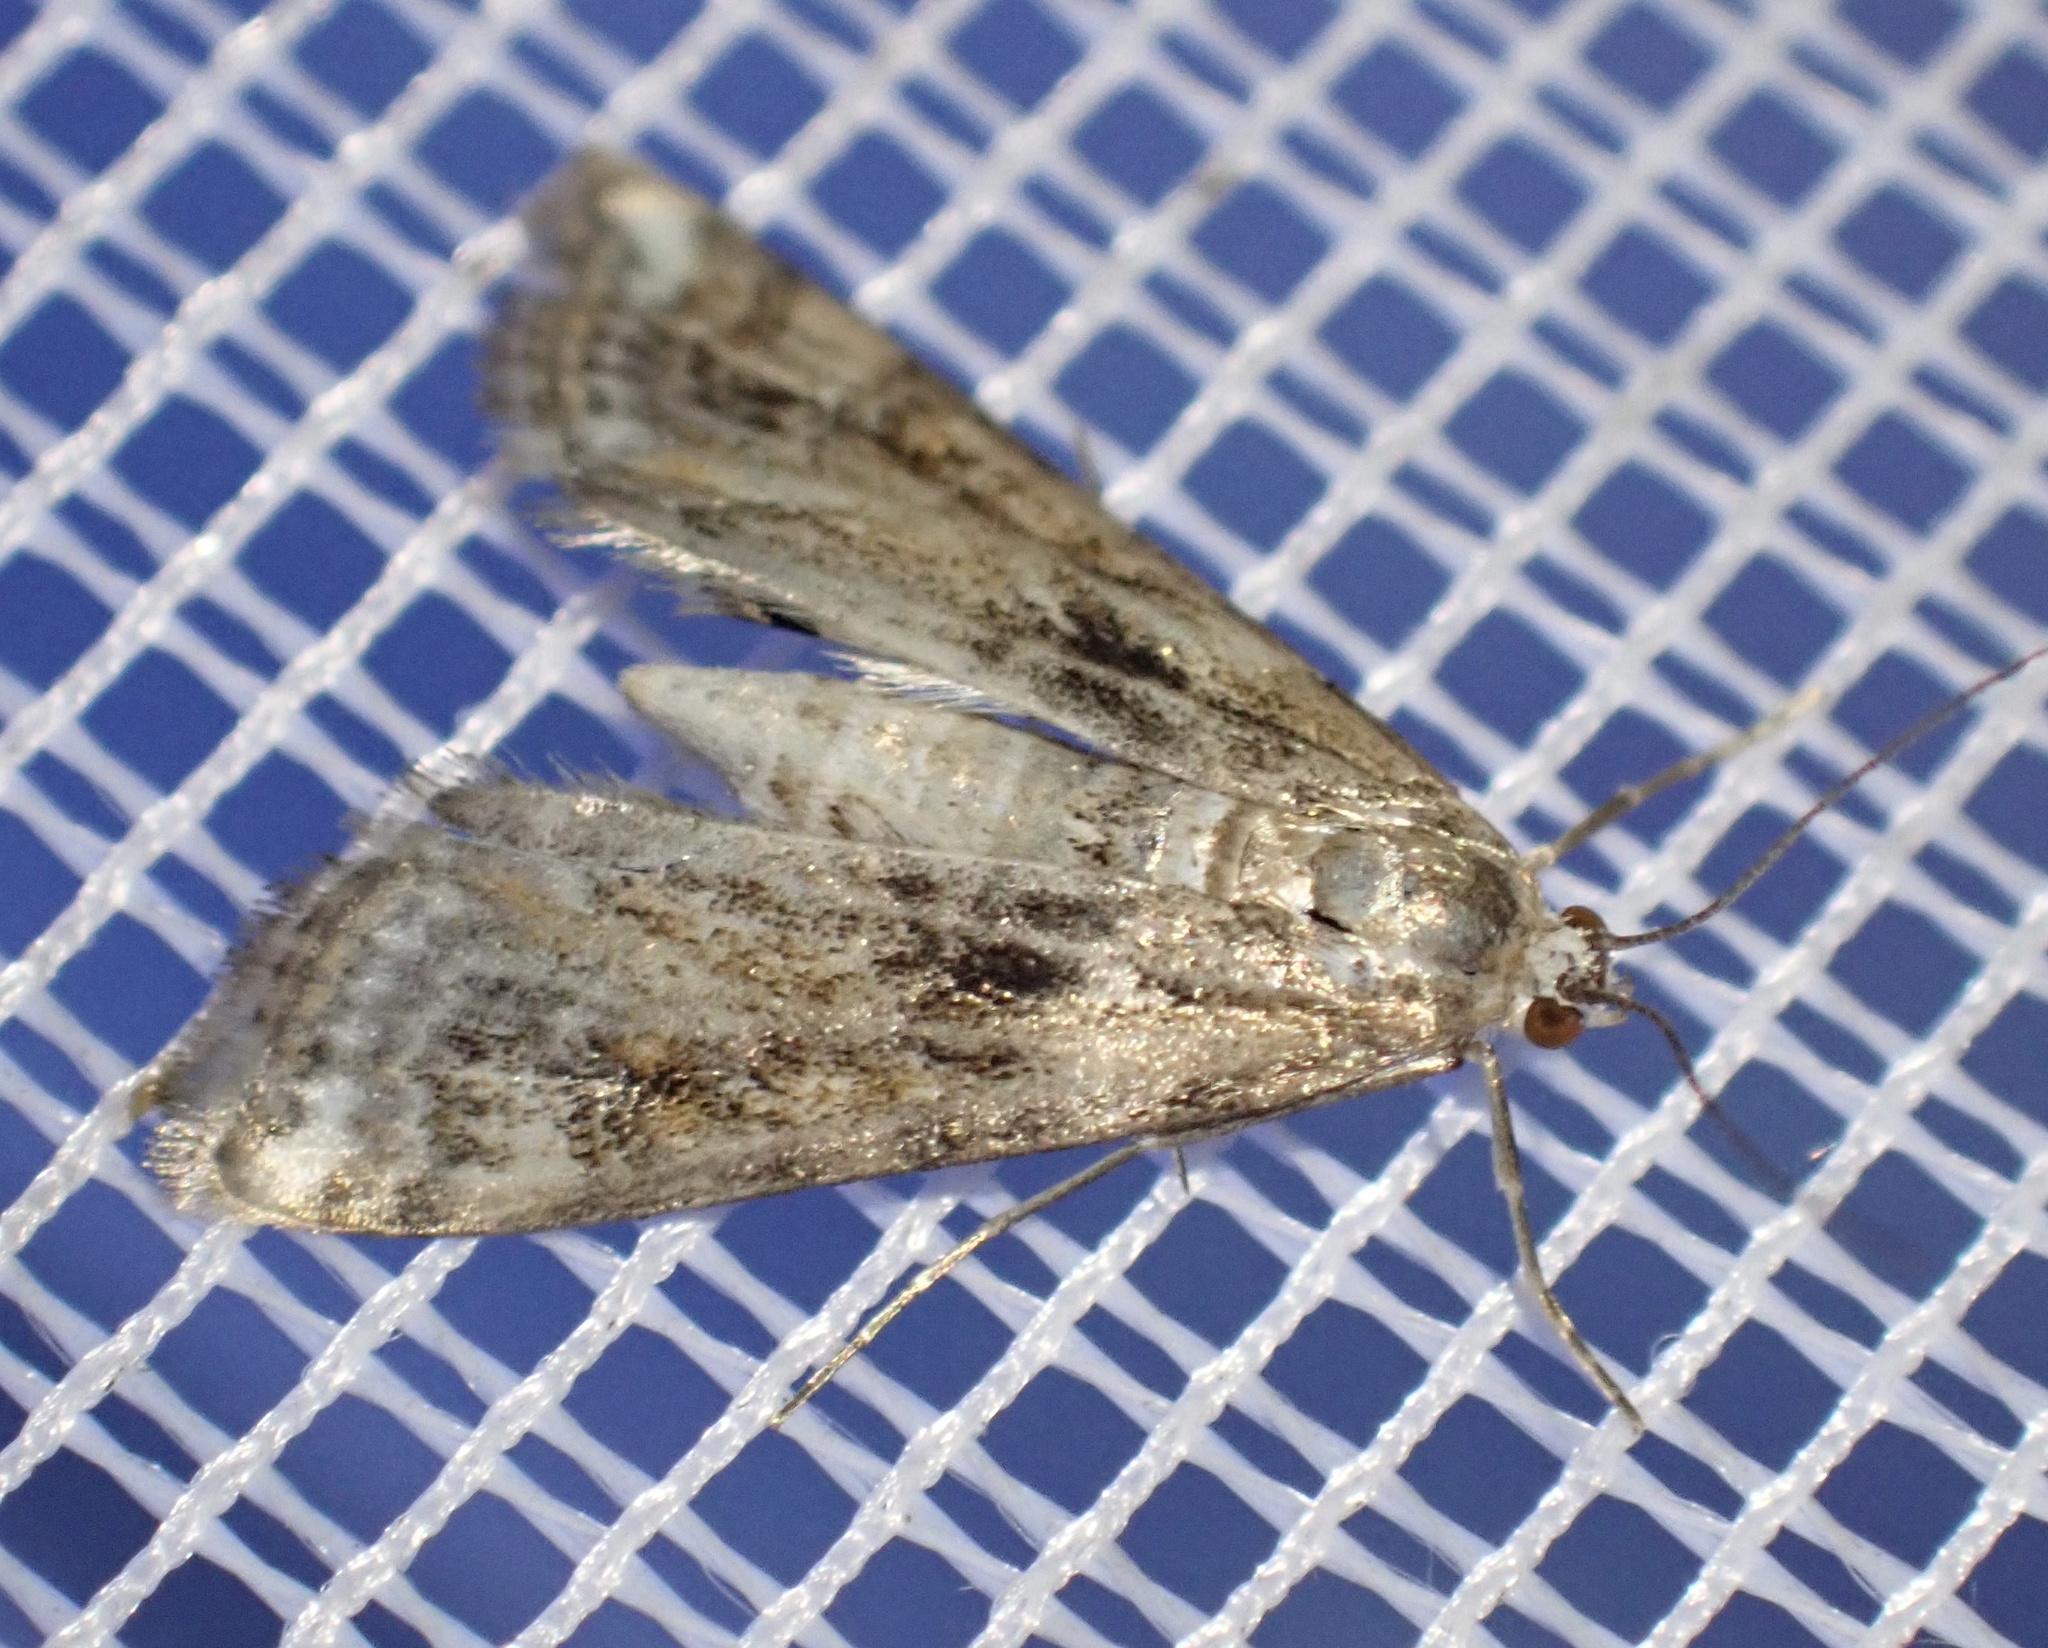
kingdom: Animalia
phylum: Arthropoda
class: Insecta
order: Lepidoptera
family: Crambidae
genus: Cataclysta
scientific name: Cataclysta lemnata
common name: Small china-mark
